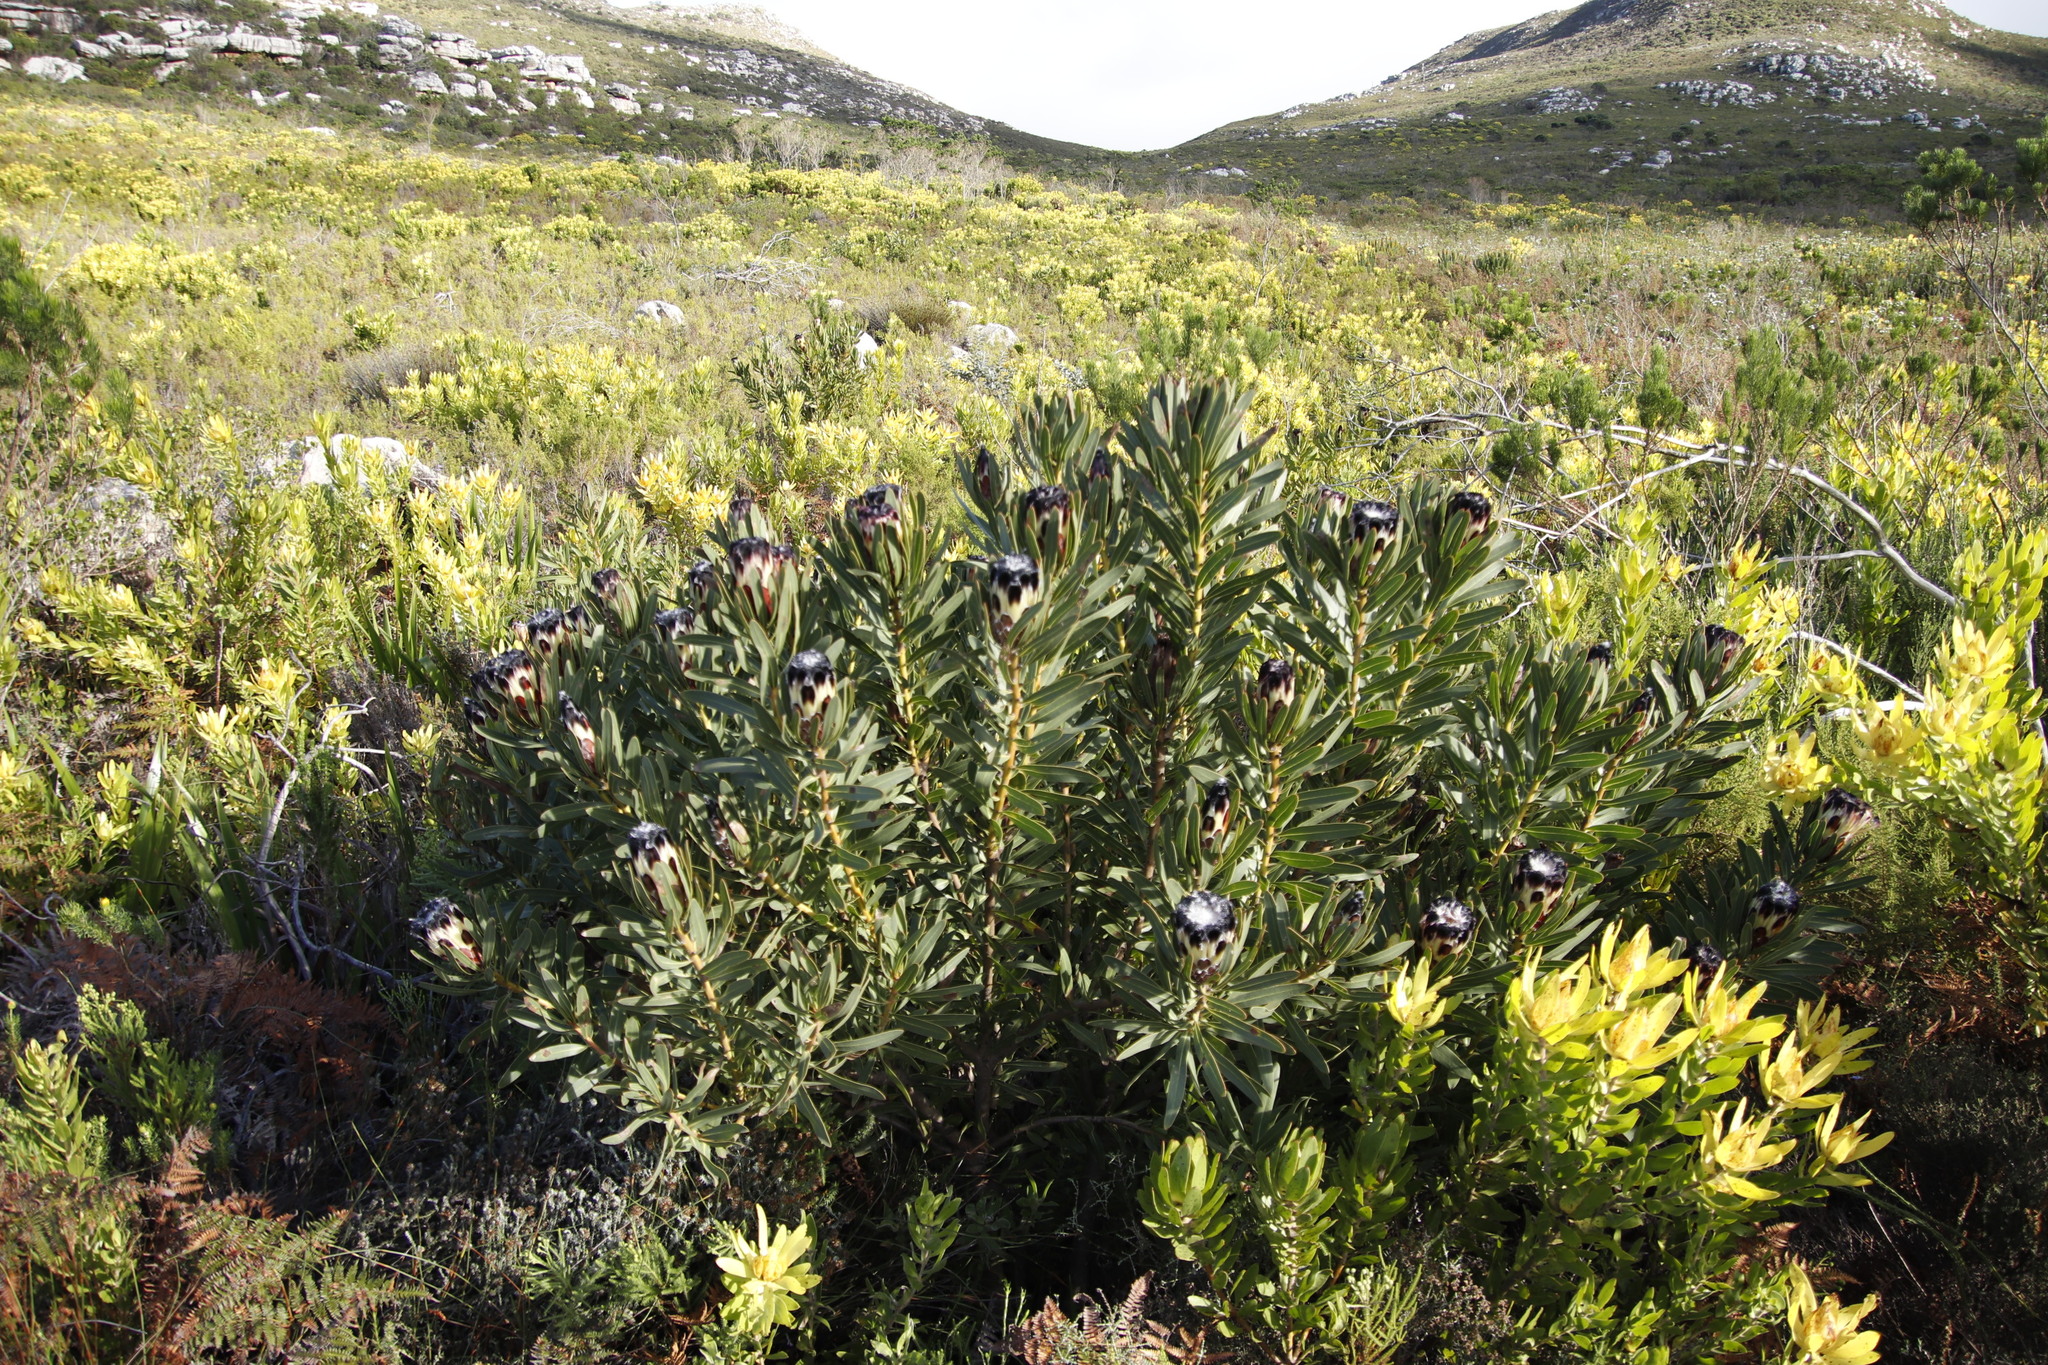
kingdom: Plantae
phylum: Tracheophyta
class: Magnoliopsida
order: Proteales
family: Proteaceae
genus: Protea
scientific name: Protea lepidocarpodendron
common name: Black-bearded protea
